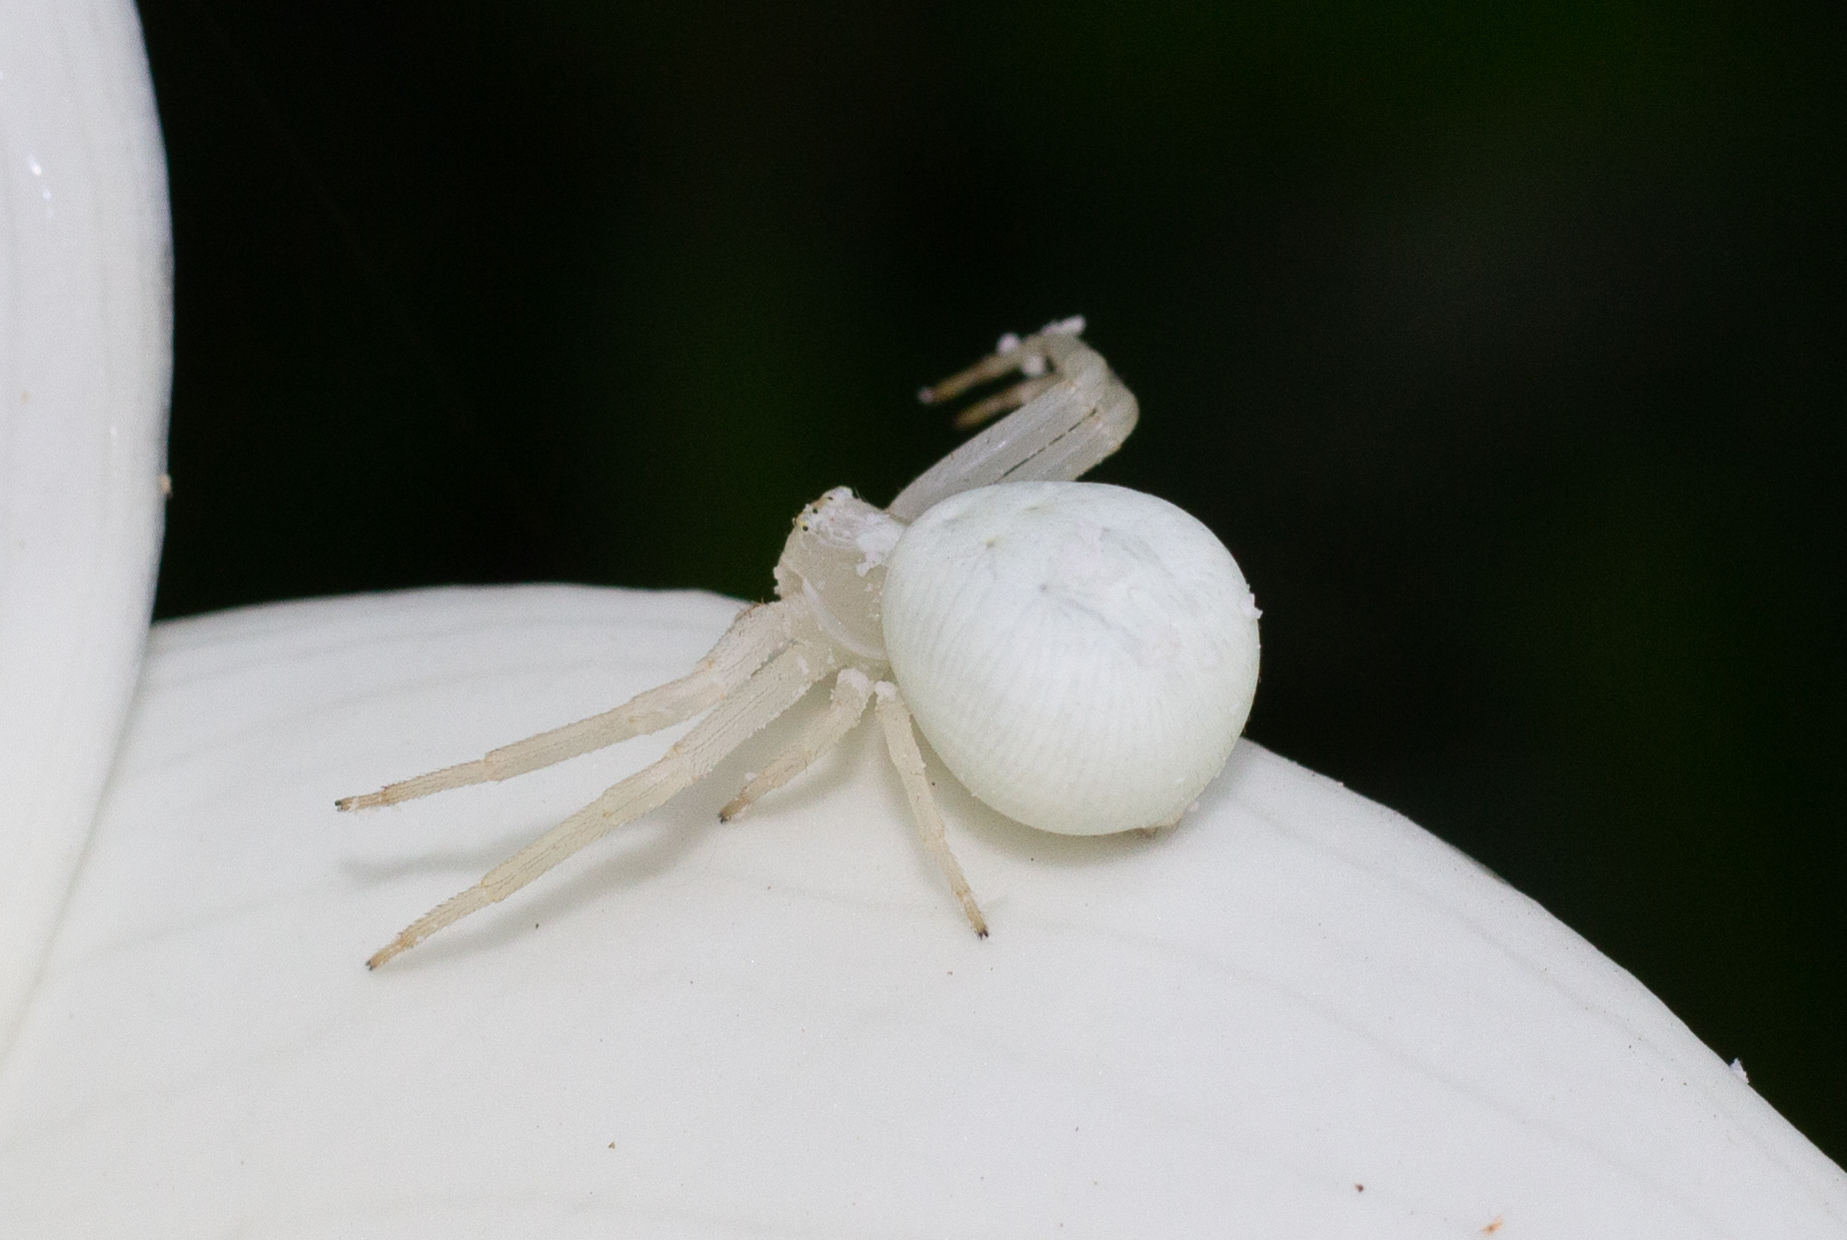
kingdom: Animalia
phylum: Arthropoda
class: Arachnida
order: Araneae
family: Thomisidae
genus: Misumena
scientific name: Misumena vatia
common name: Goldenrod crab spider
